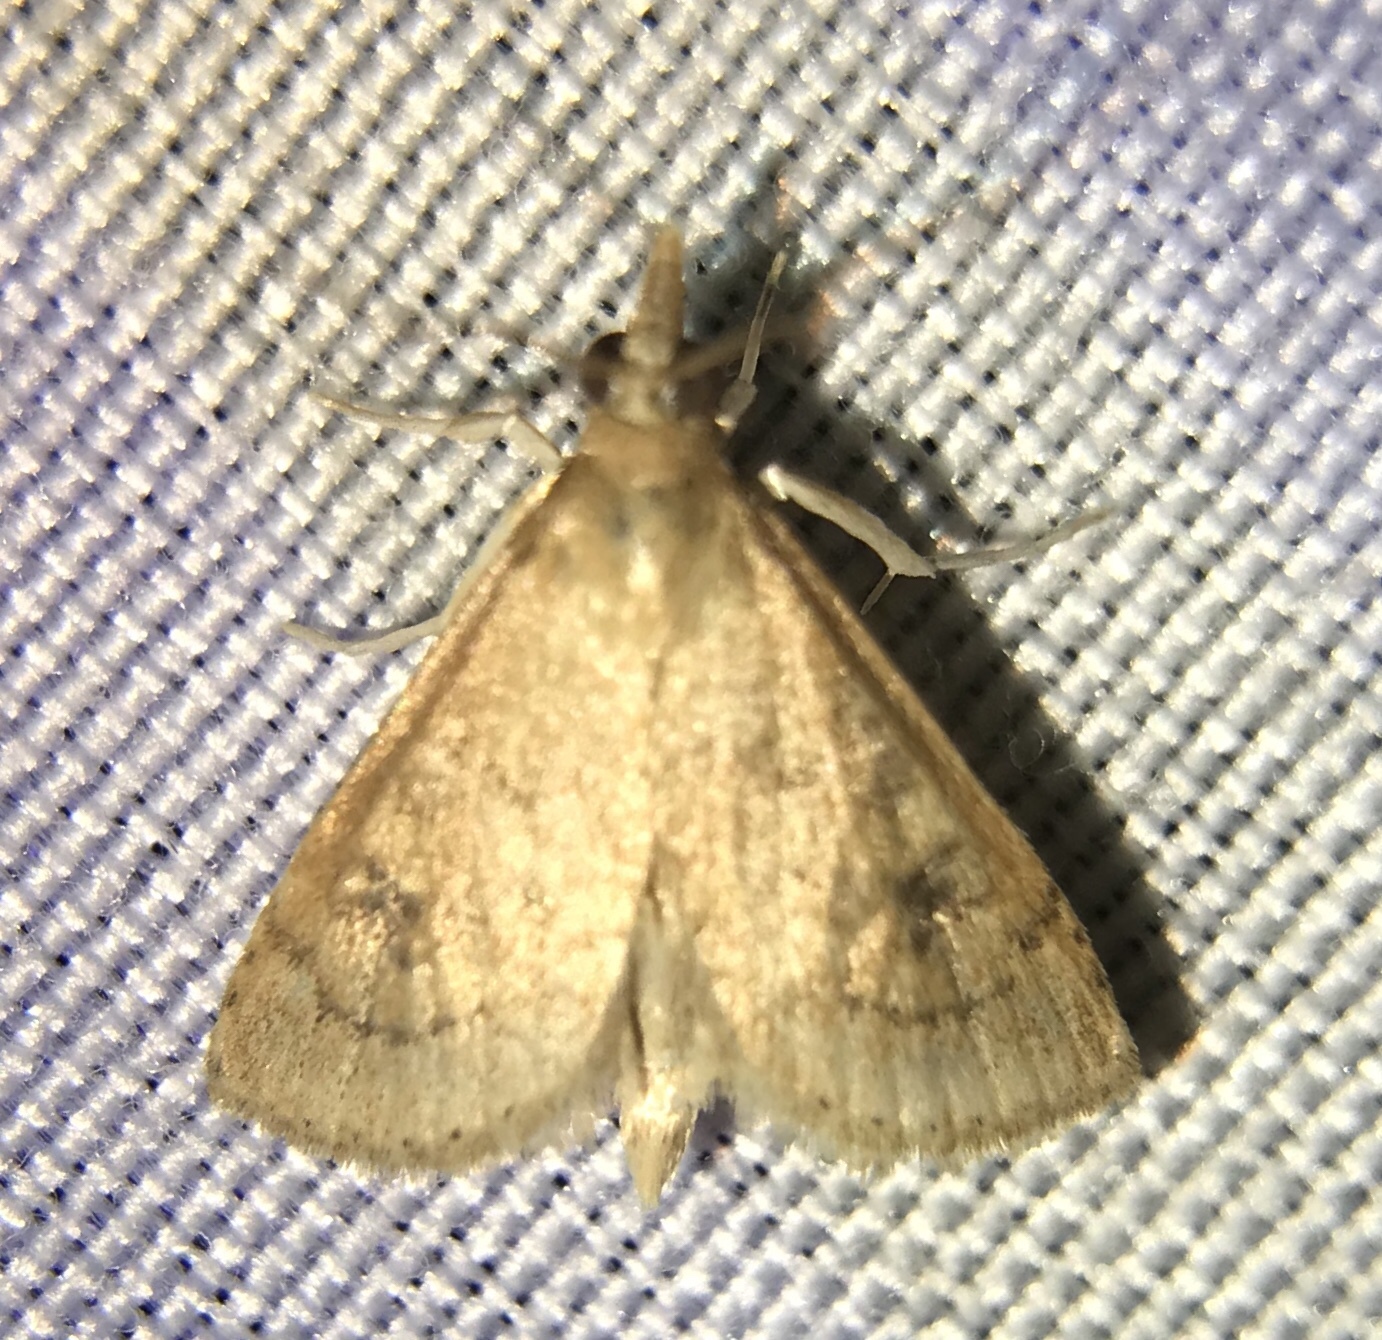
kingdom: Animalia
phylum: Arthropoda
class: Insecta
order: Lepidoptera
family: Crambidae
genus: Udea
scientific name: Udea rubigalis
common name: Celery leaftier moth
